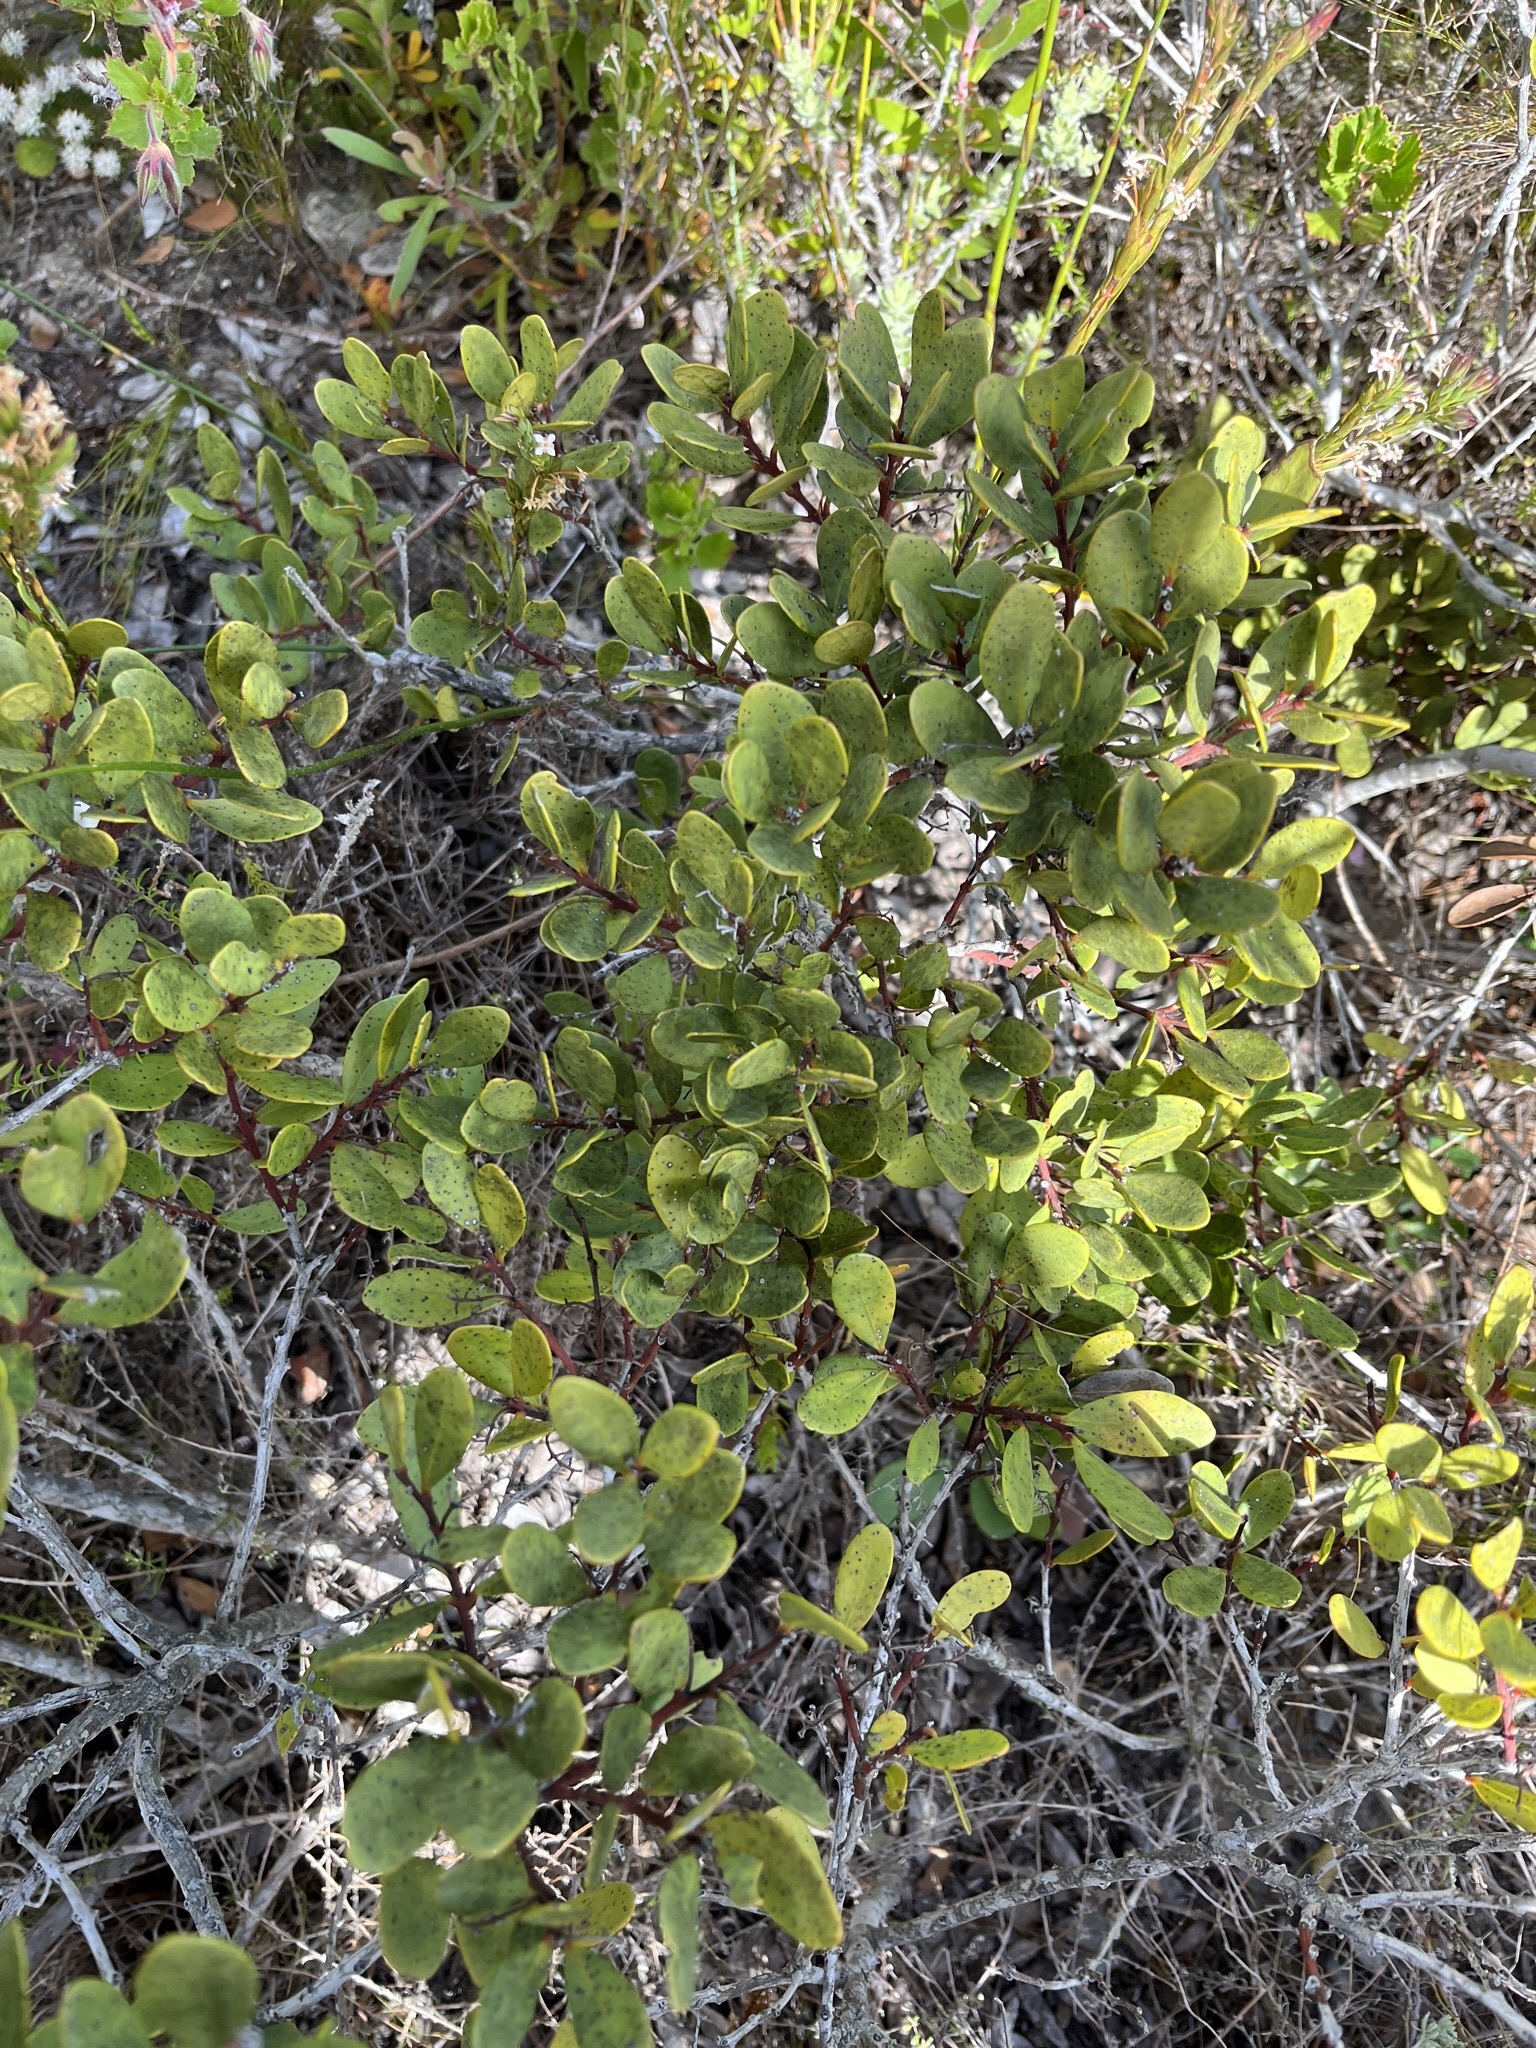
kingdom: Plantae
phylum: Tracheophyta
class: Magnoliopsida
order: Ericales
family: Ebenaceae
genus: Euclea
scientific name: Euclea racemosa
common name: Dune guarri
